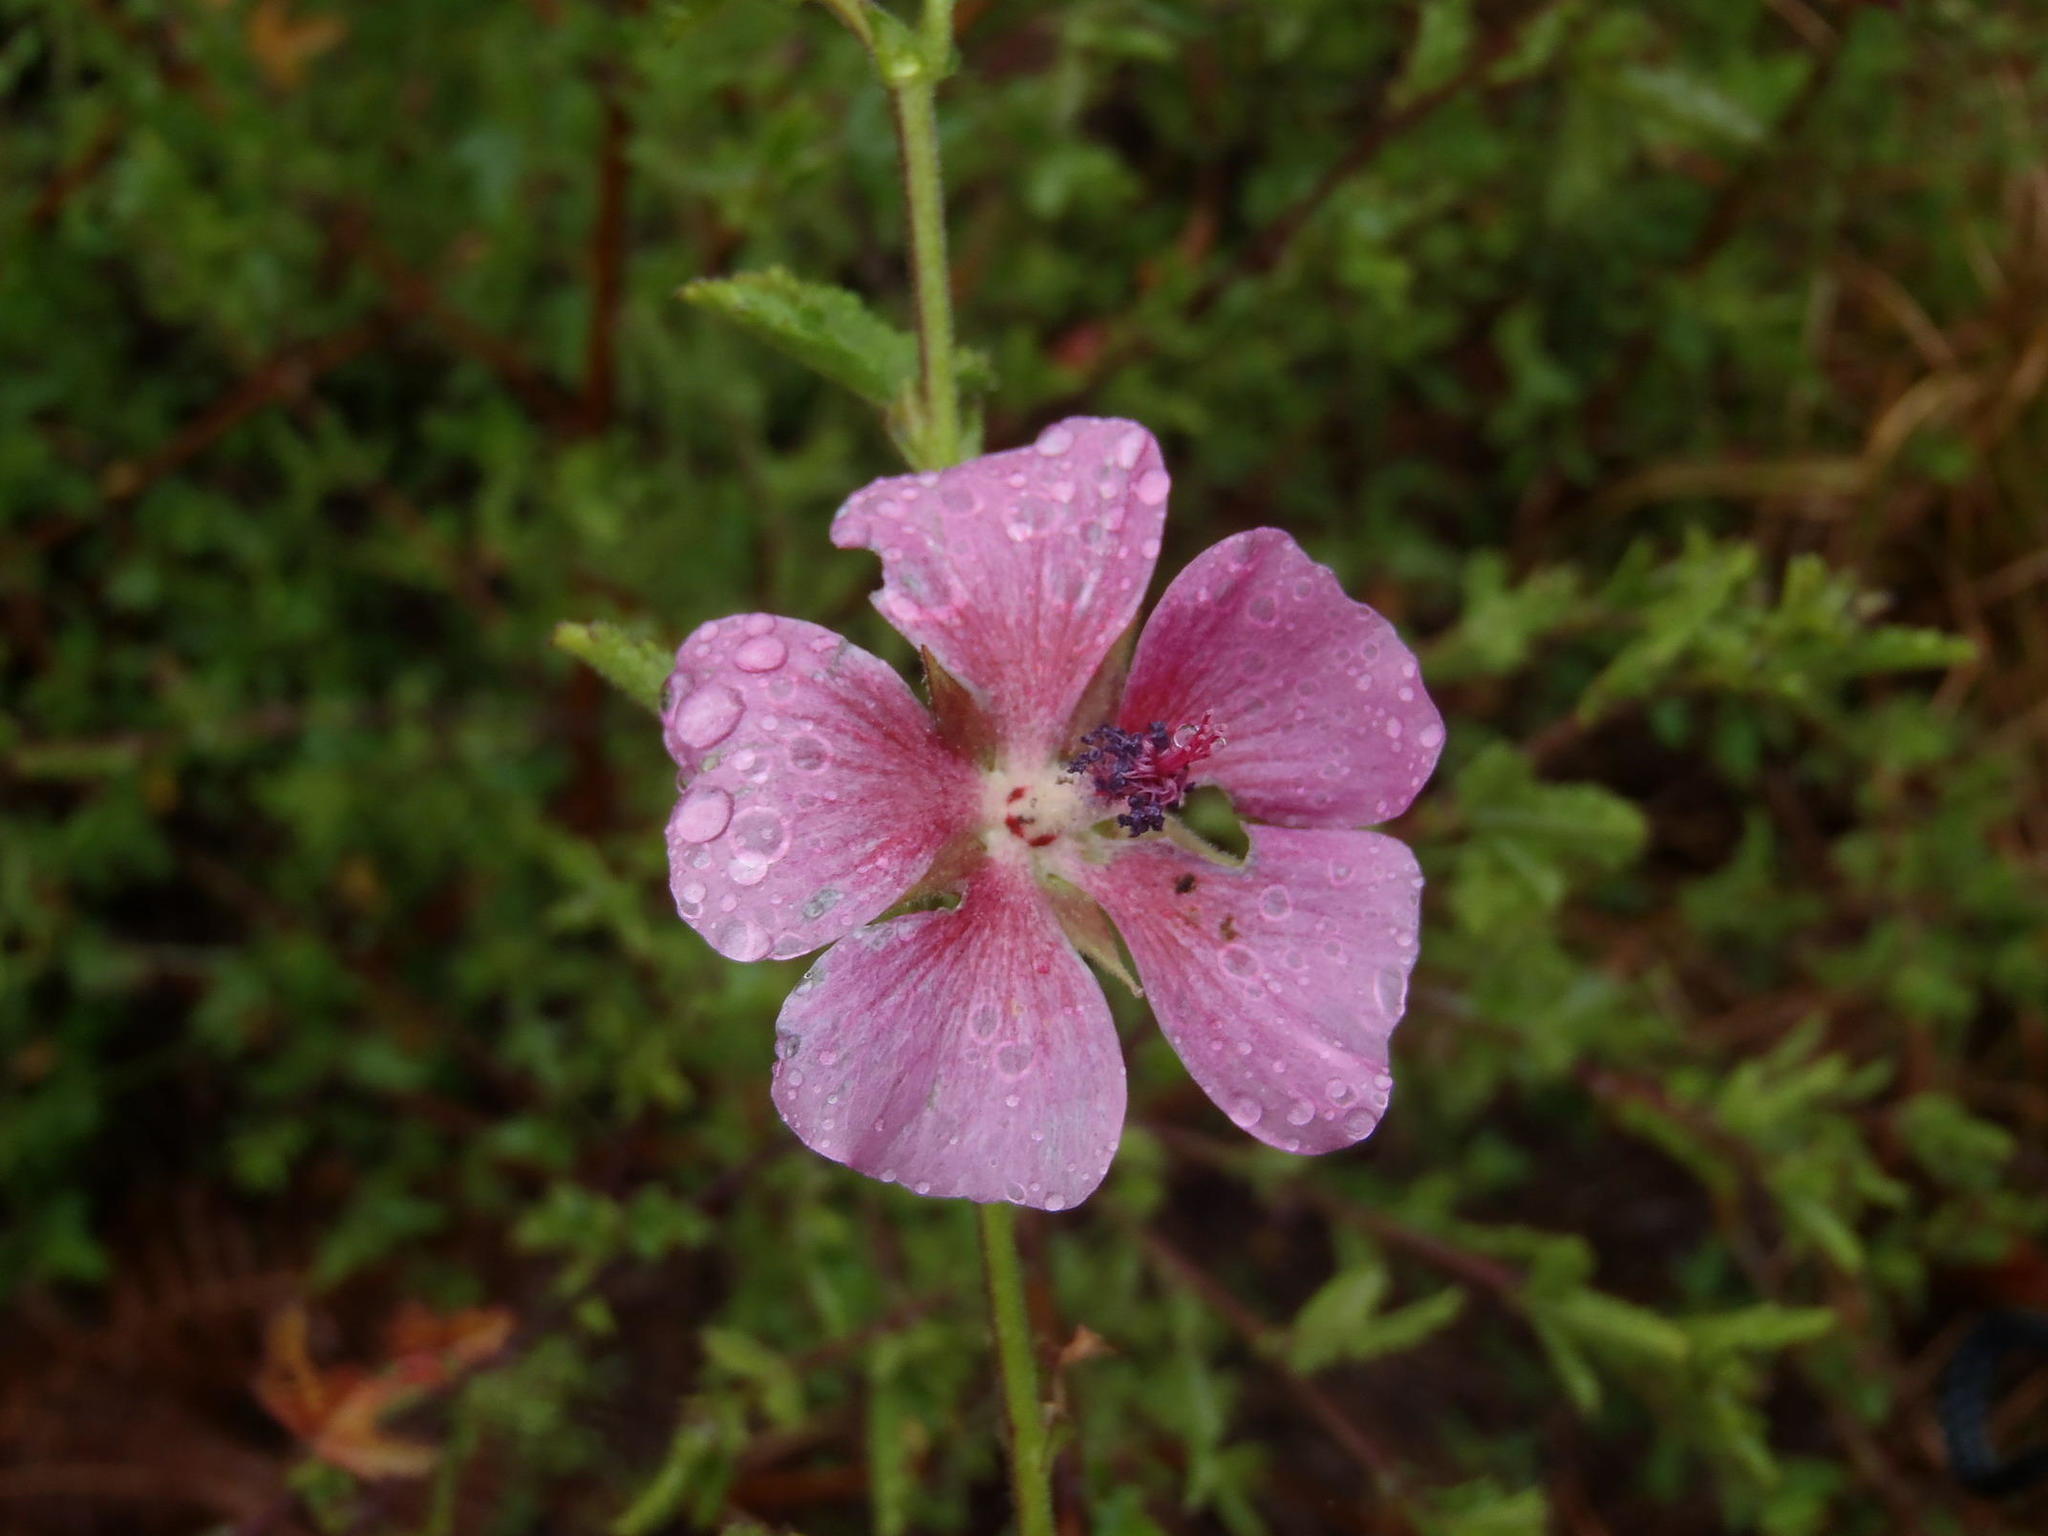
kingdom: Plantae
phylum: Tracheophyta
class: Magnoliopsida
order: Malvales
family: Malvaceae
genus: Anisodontea
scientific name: Anisodontea scabrosa
